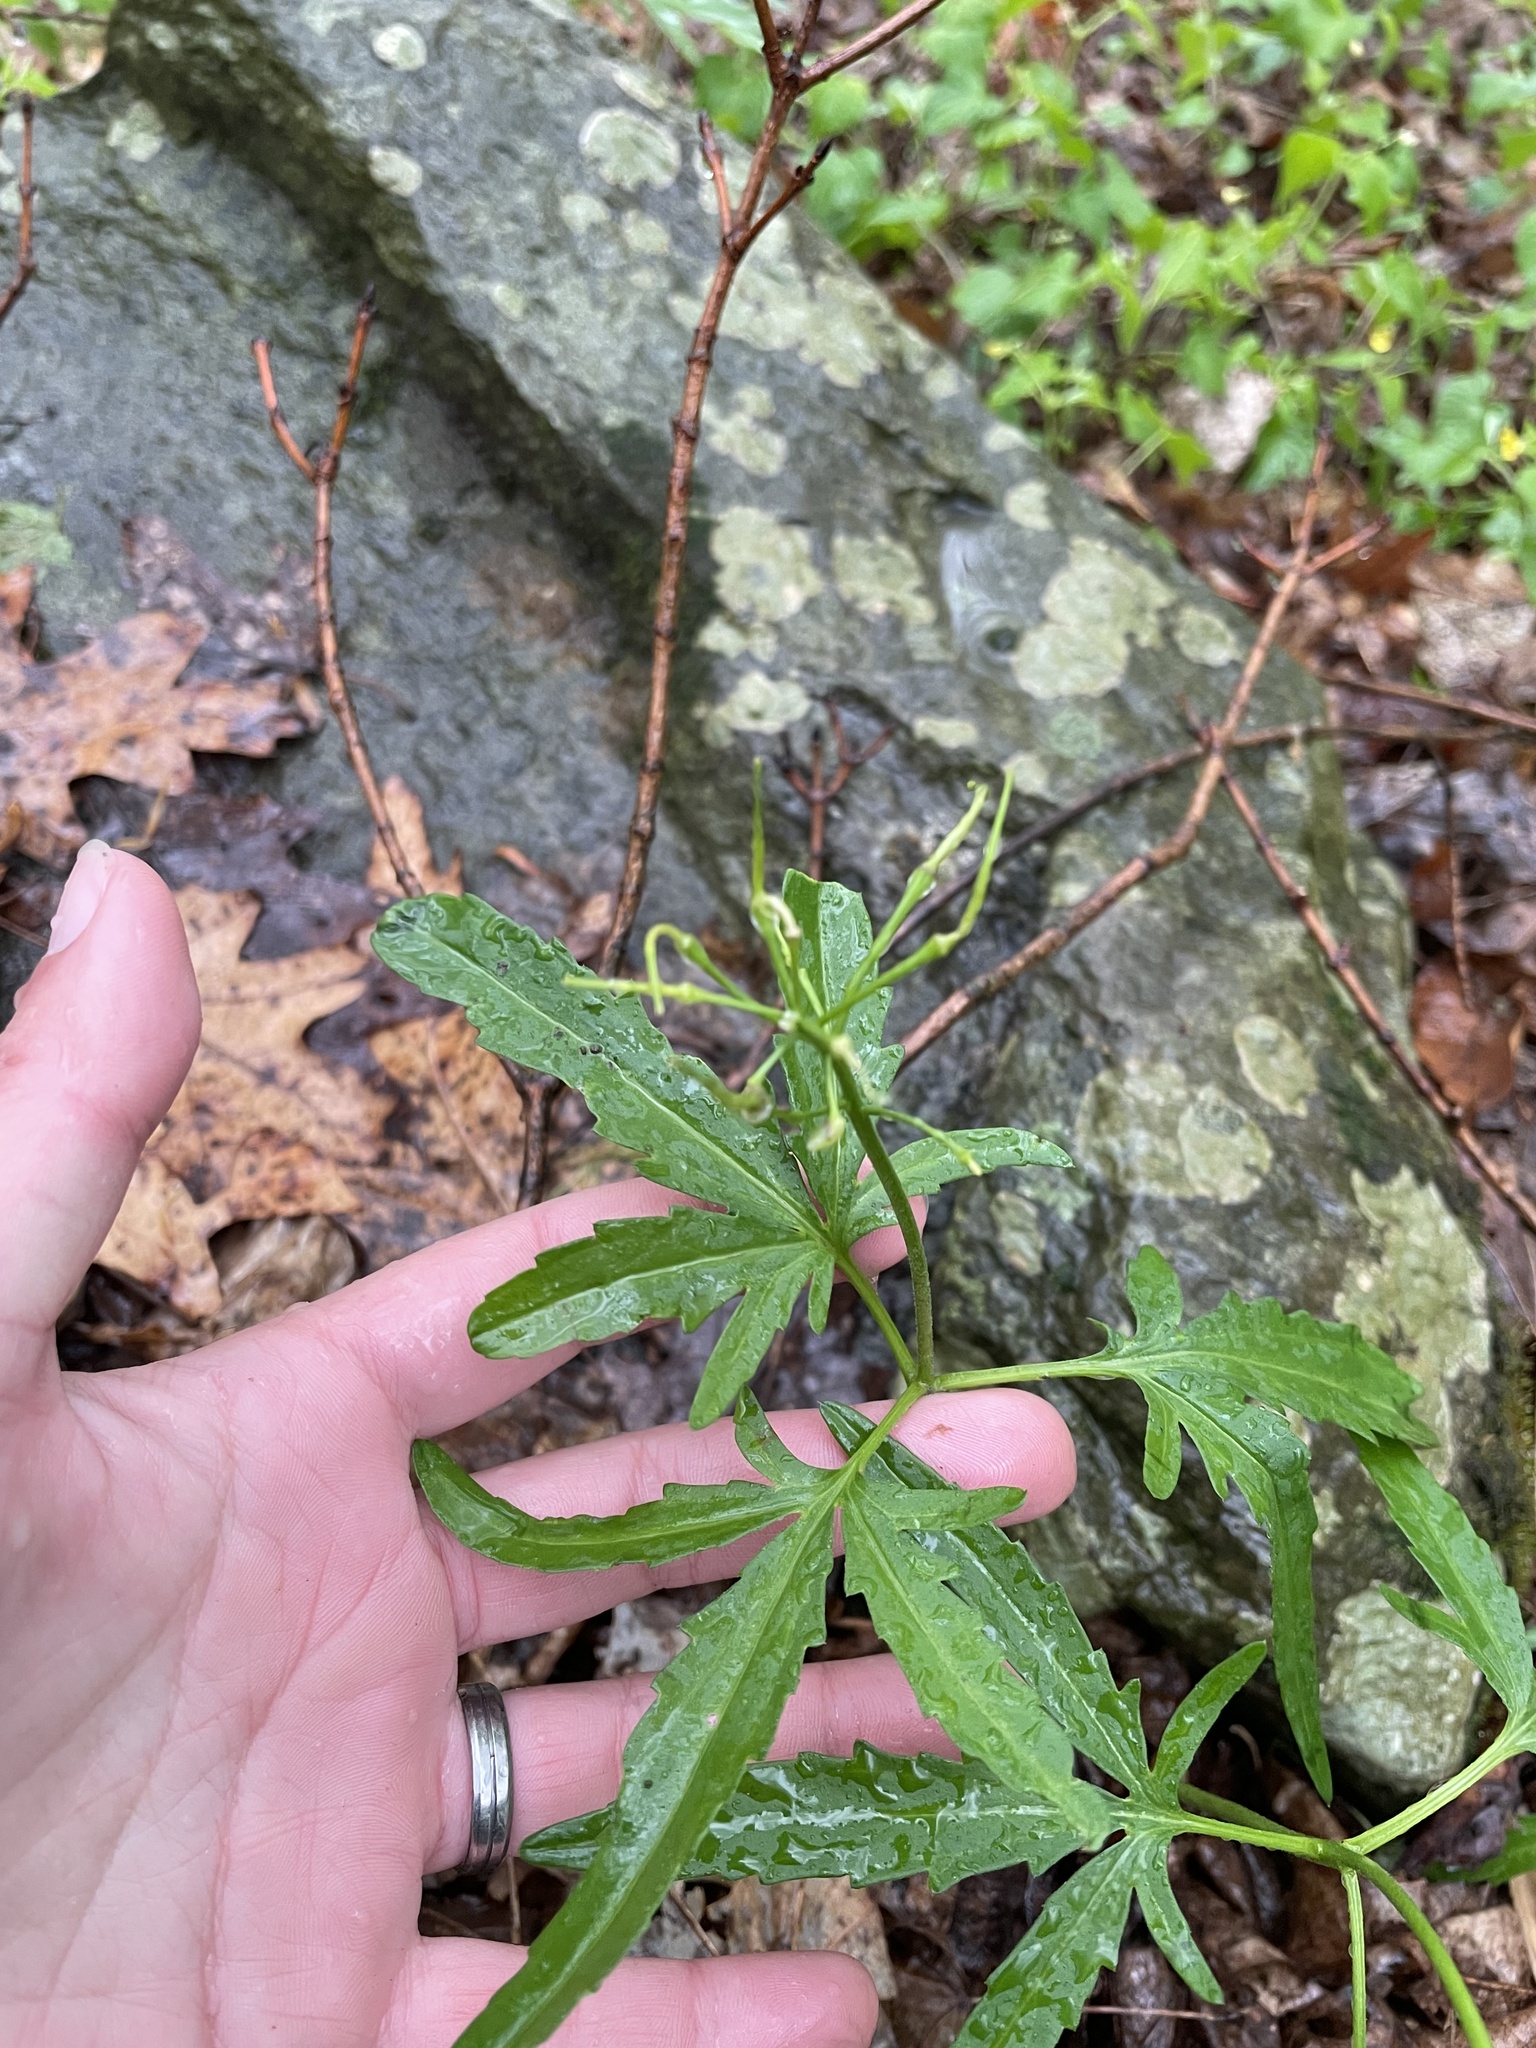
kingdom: Plantae
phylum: Tracheophyta
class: Magnoliopsida
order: Brassicales
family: Brassicaceae
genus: Cardamine
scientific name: Cardamine concatenata
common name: Cut-leaf toothcup
